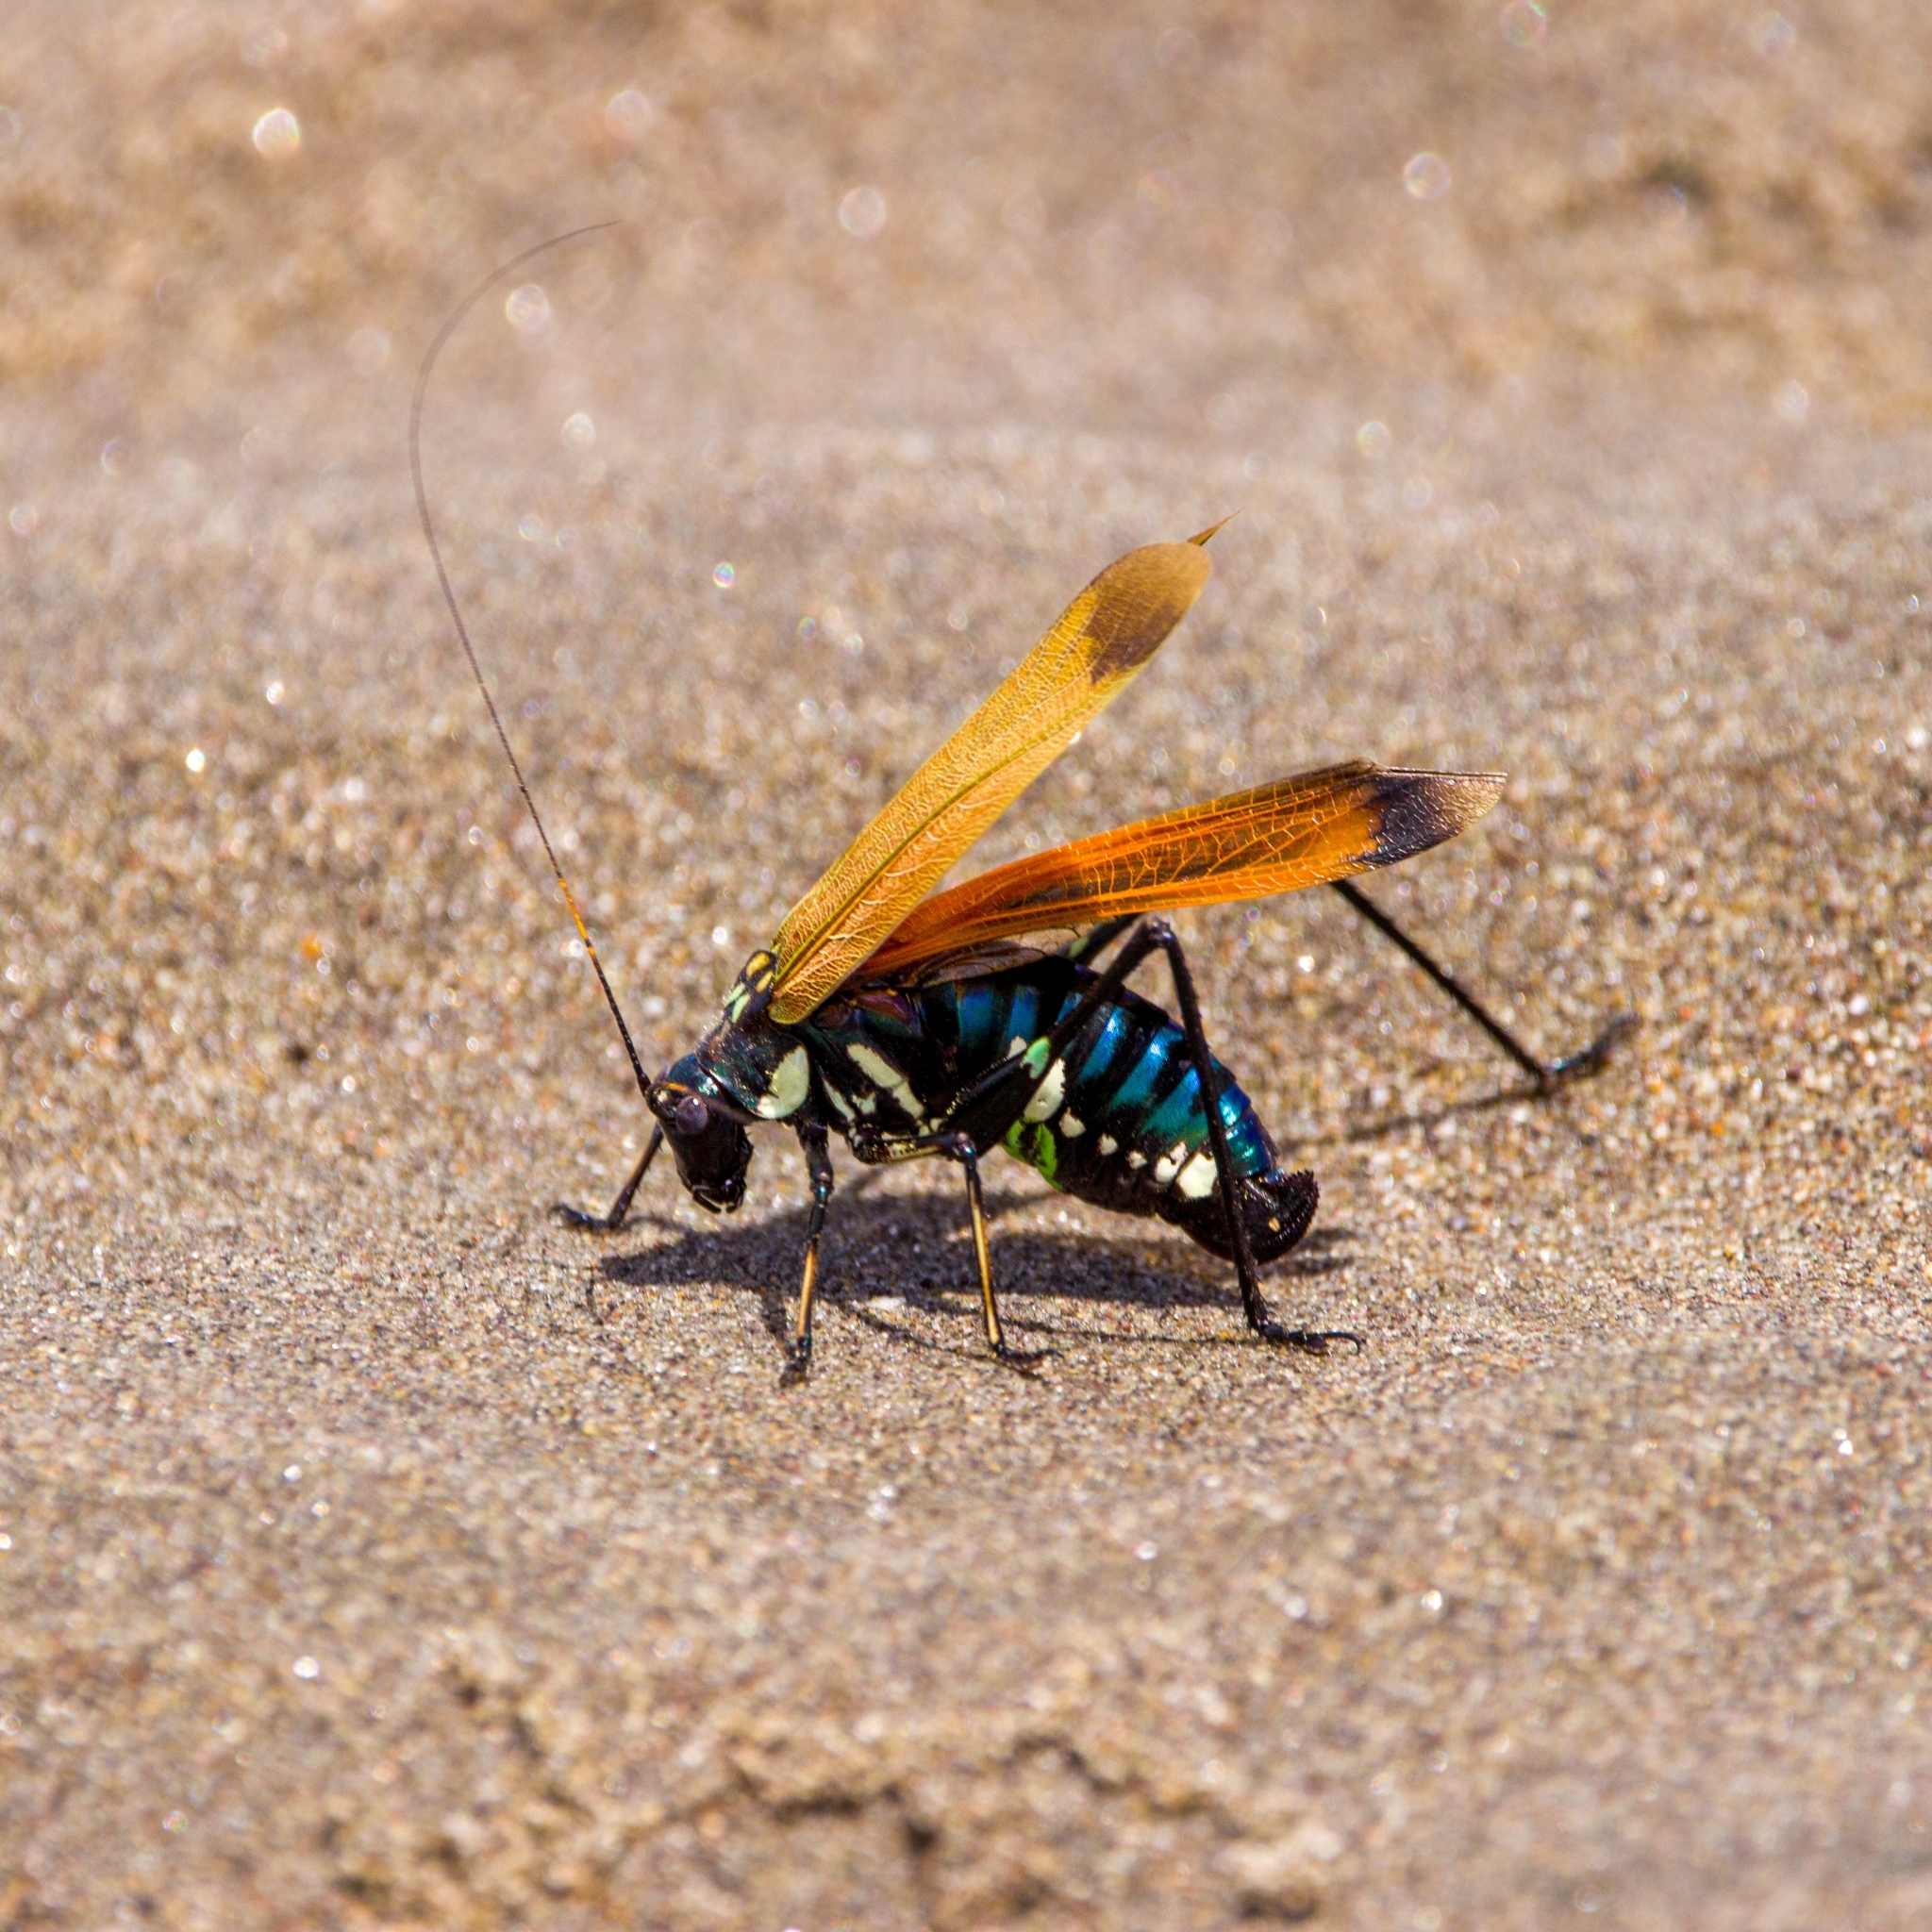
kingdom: Animalia
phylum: Arthropoda
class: Insecta
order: Orthoptera
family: Tettigoniidae
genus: Scaphura
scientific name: Scaphura elegans
